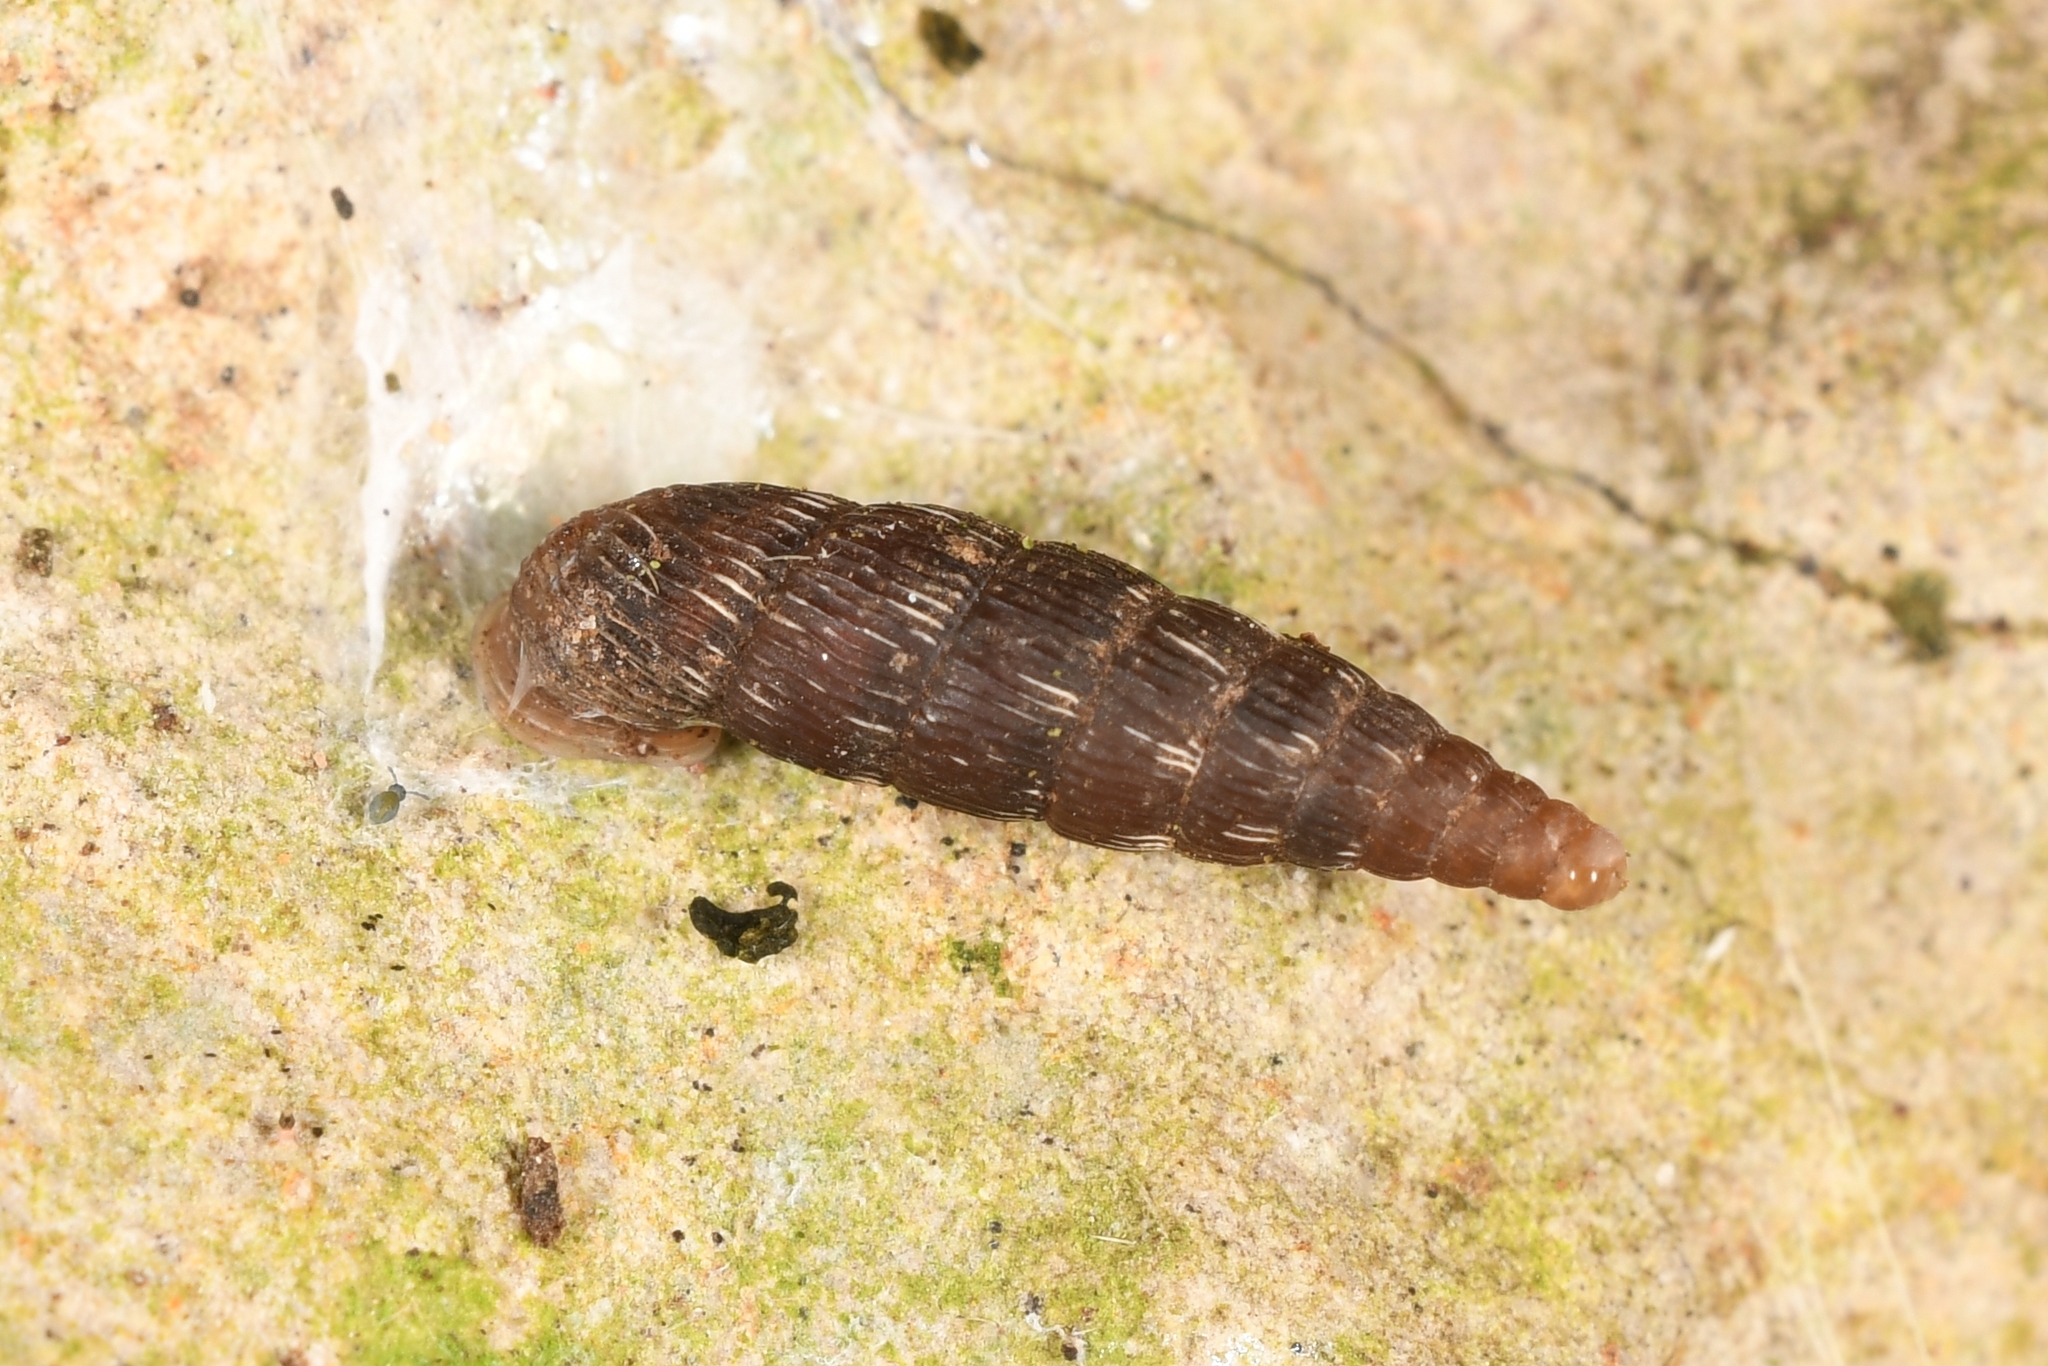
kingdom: Animalia
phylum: Mollusca
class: Gastropoda
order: Stylommatophora
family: Clausiliidae
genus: Clausilia
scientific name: Clausilia rugosa
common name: Tiny door snail
